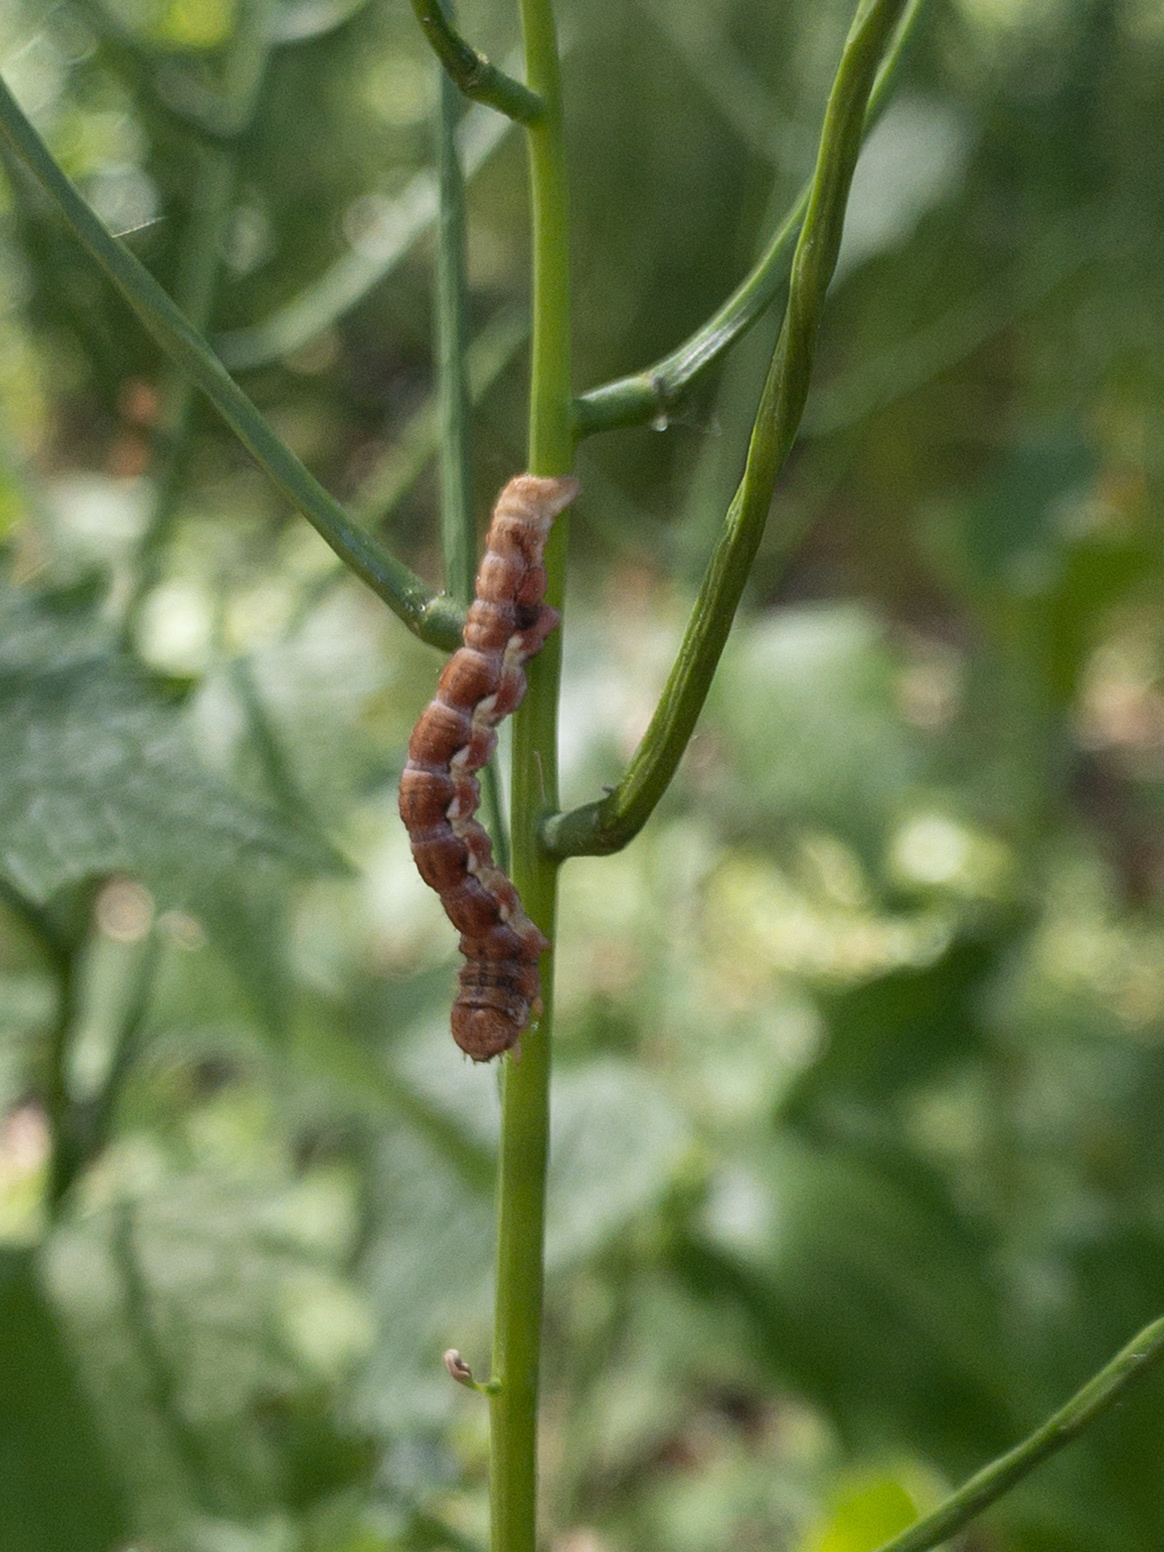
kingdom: Animalia
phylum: Arthropoda
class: Insecta
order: Lepidoptera
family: Geometridae
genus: Erannis
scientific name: Erannis defoliaria
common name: Mottled umber
